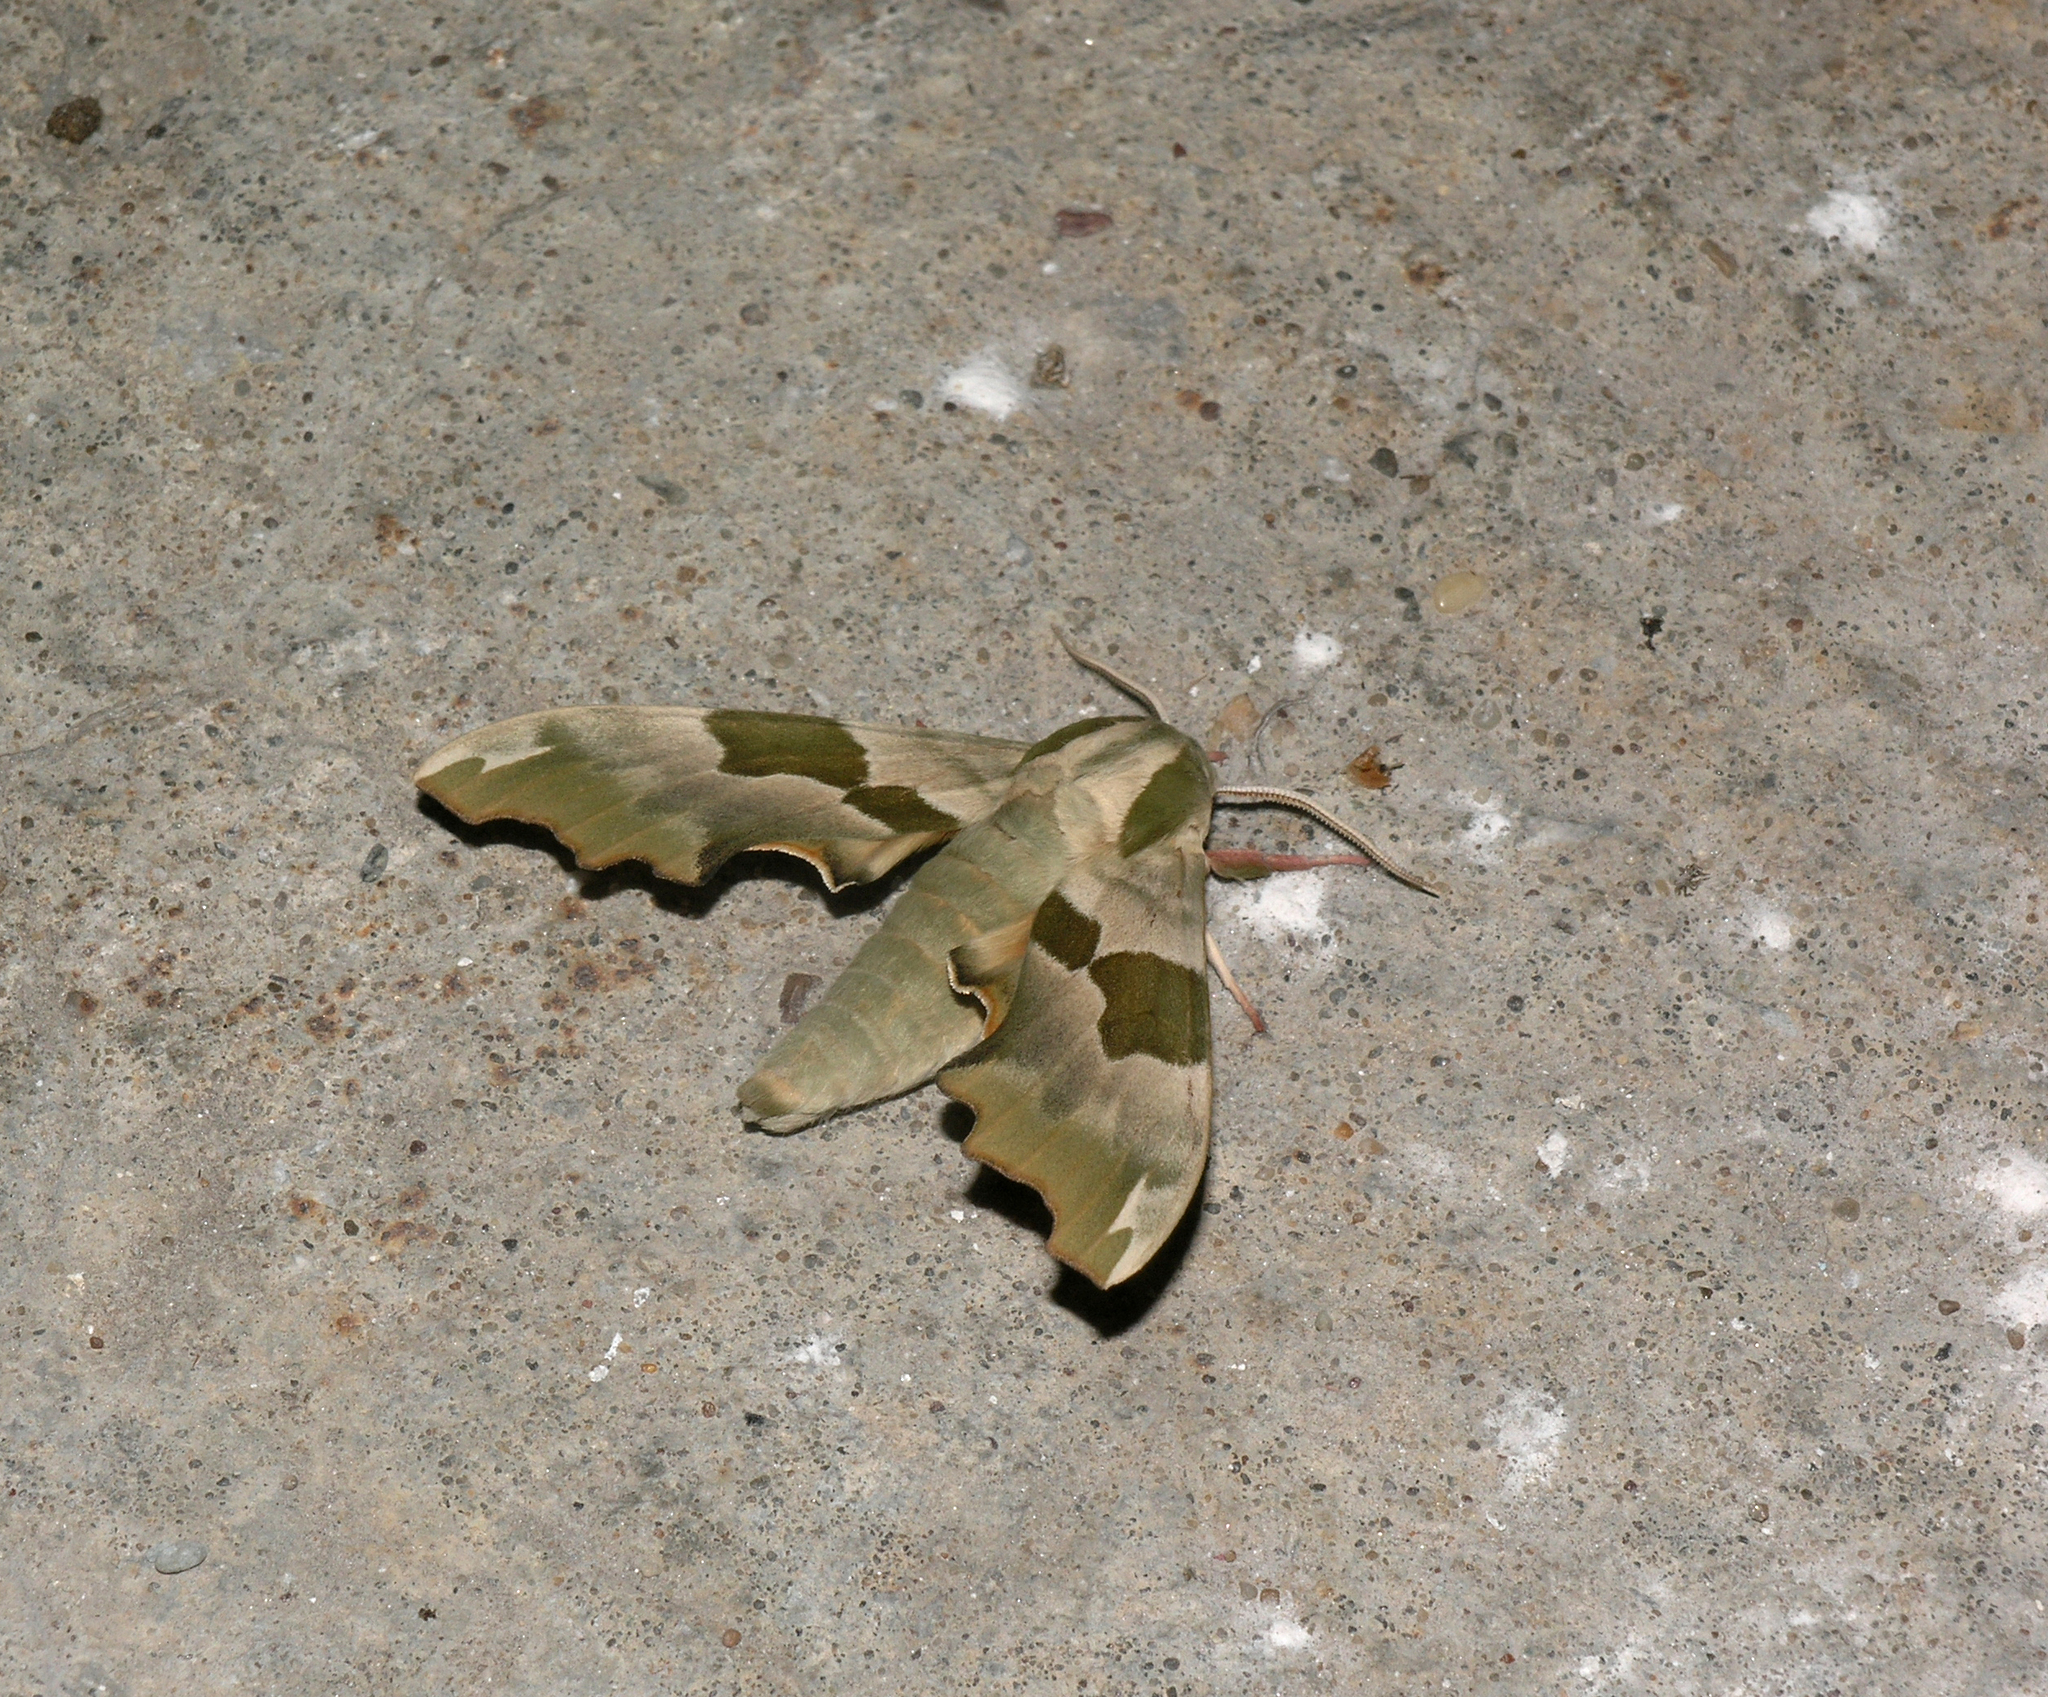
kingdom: Animalia
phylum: Arthropoda
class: Insecta
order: Lepidoptera
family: Sphingidae
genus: Mimas
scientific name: Mimas tiliae
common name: Lime hawk-moth
